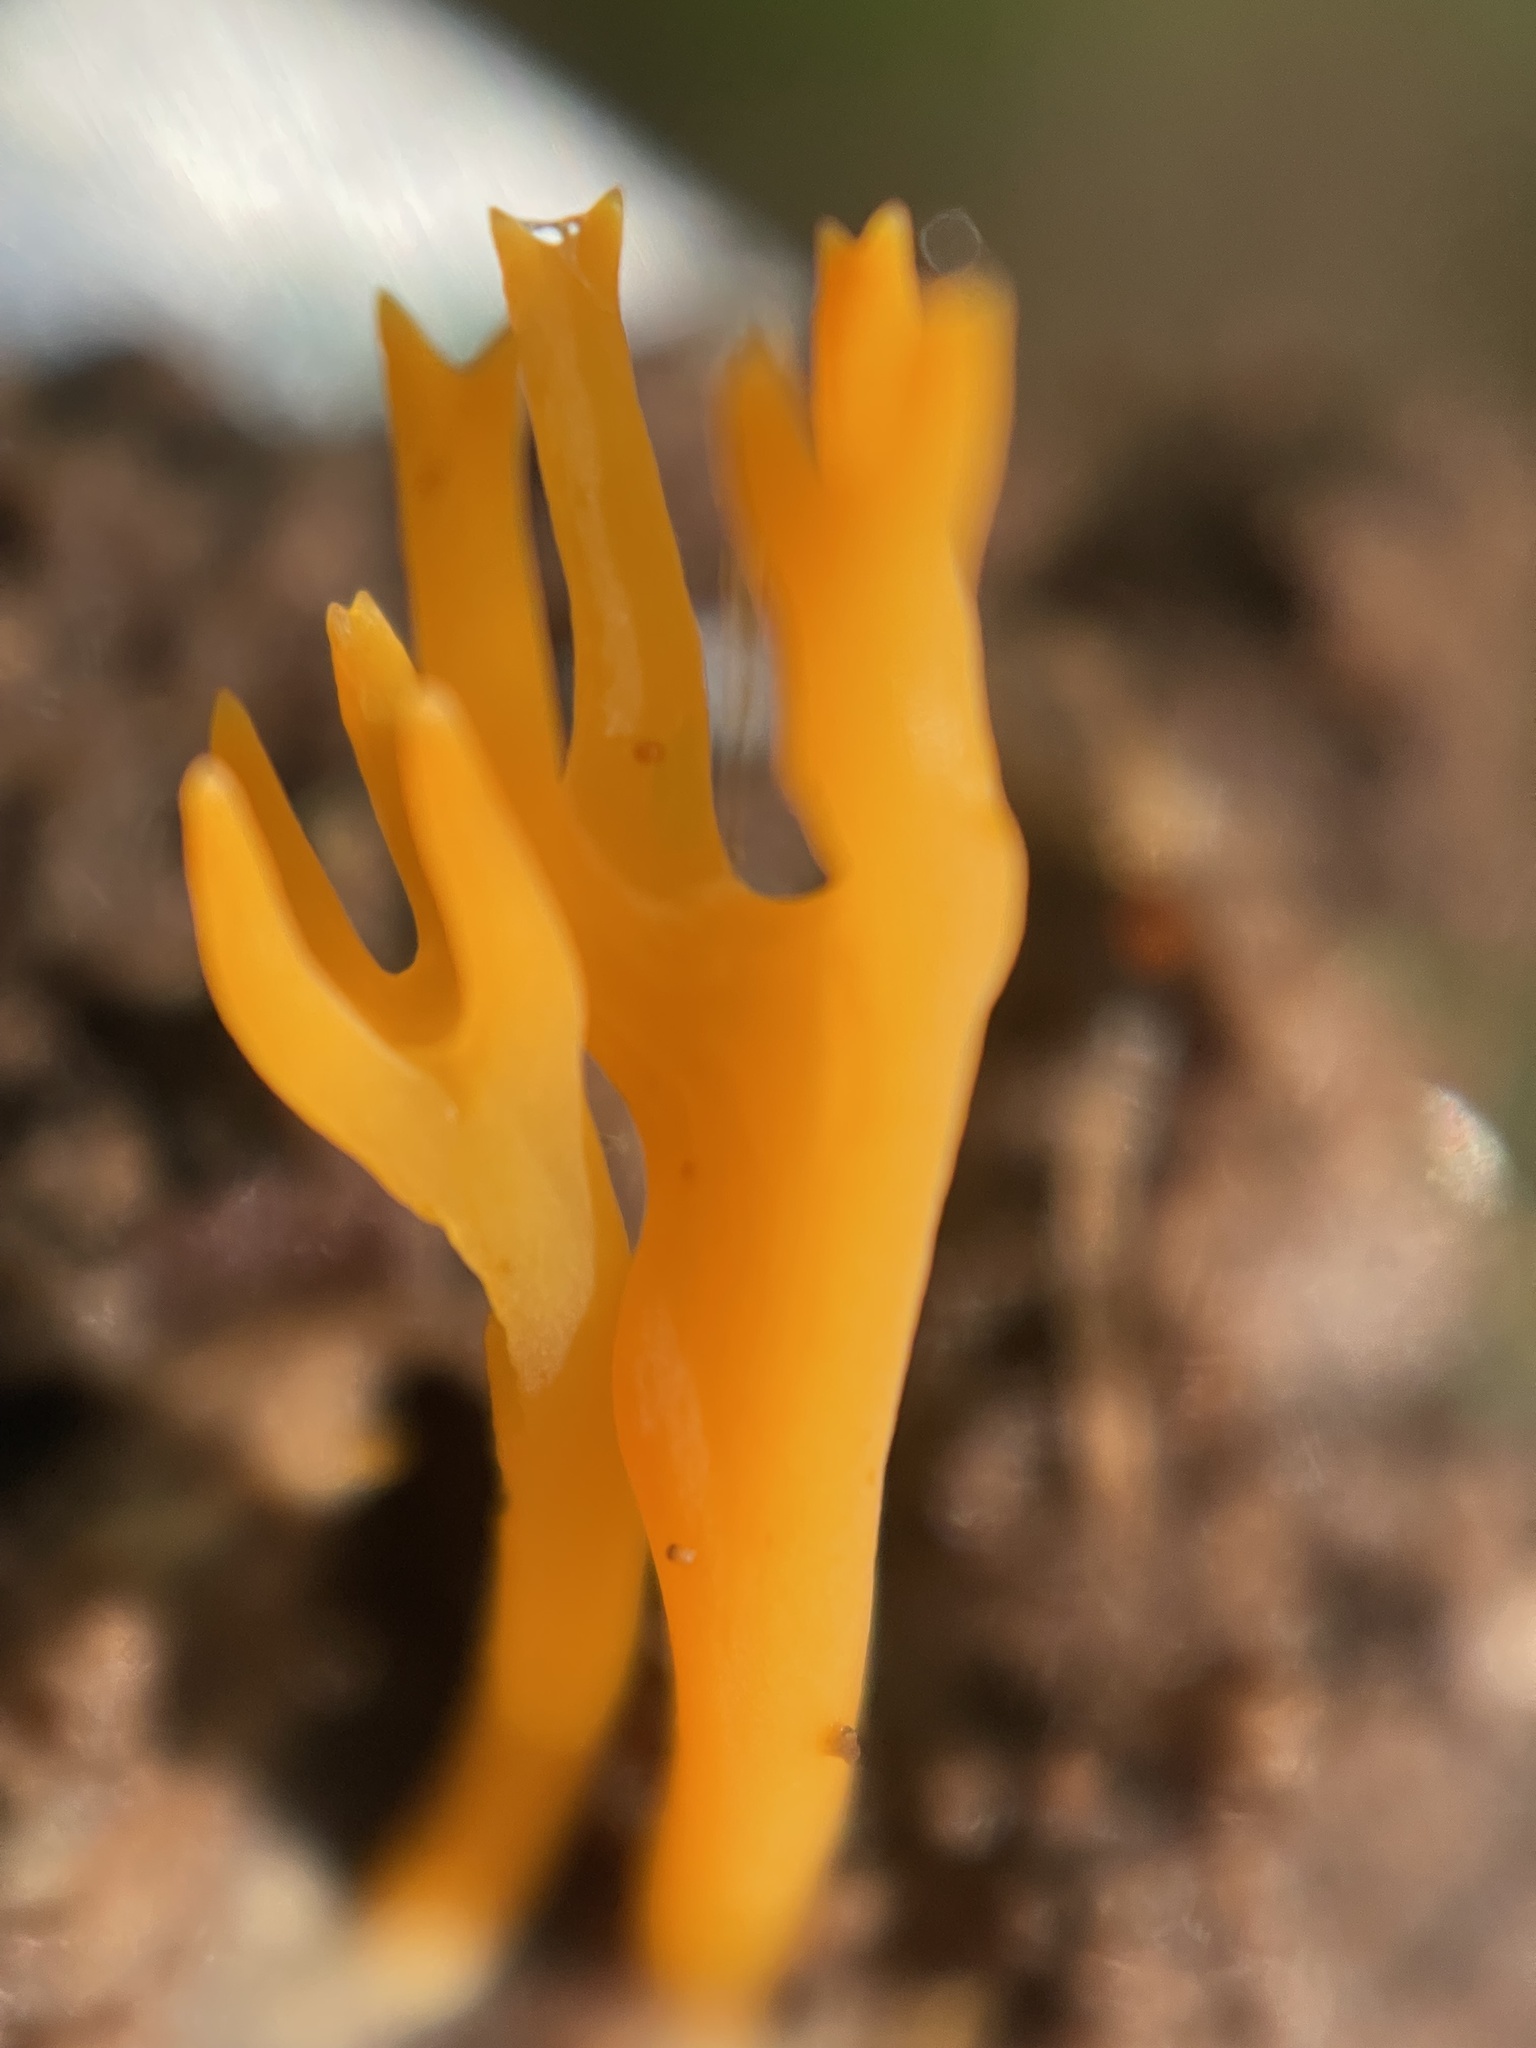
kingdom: Fungi
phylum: Basidiomycota
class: Dacrymycetes
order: Dacrymycetales
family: Dacrymycetaceae
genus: Calocera
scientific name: Calocera viscosa
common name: Yellow stagshorn
